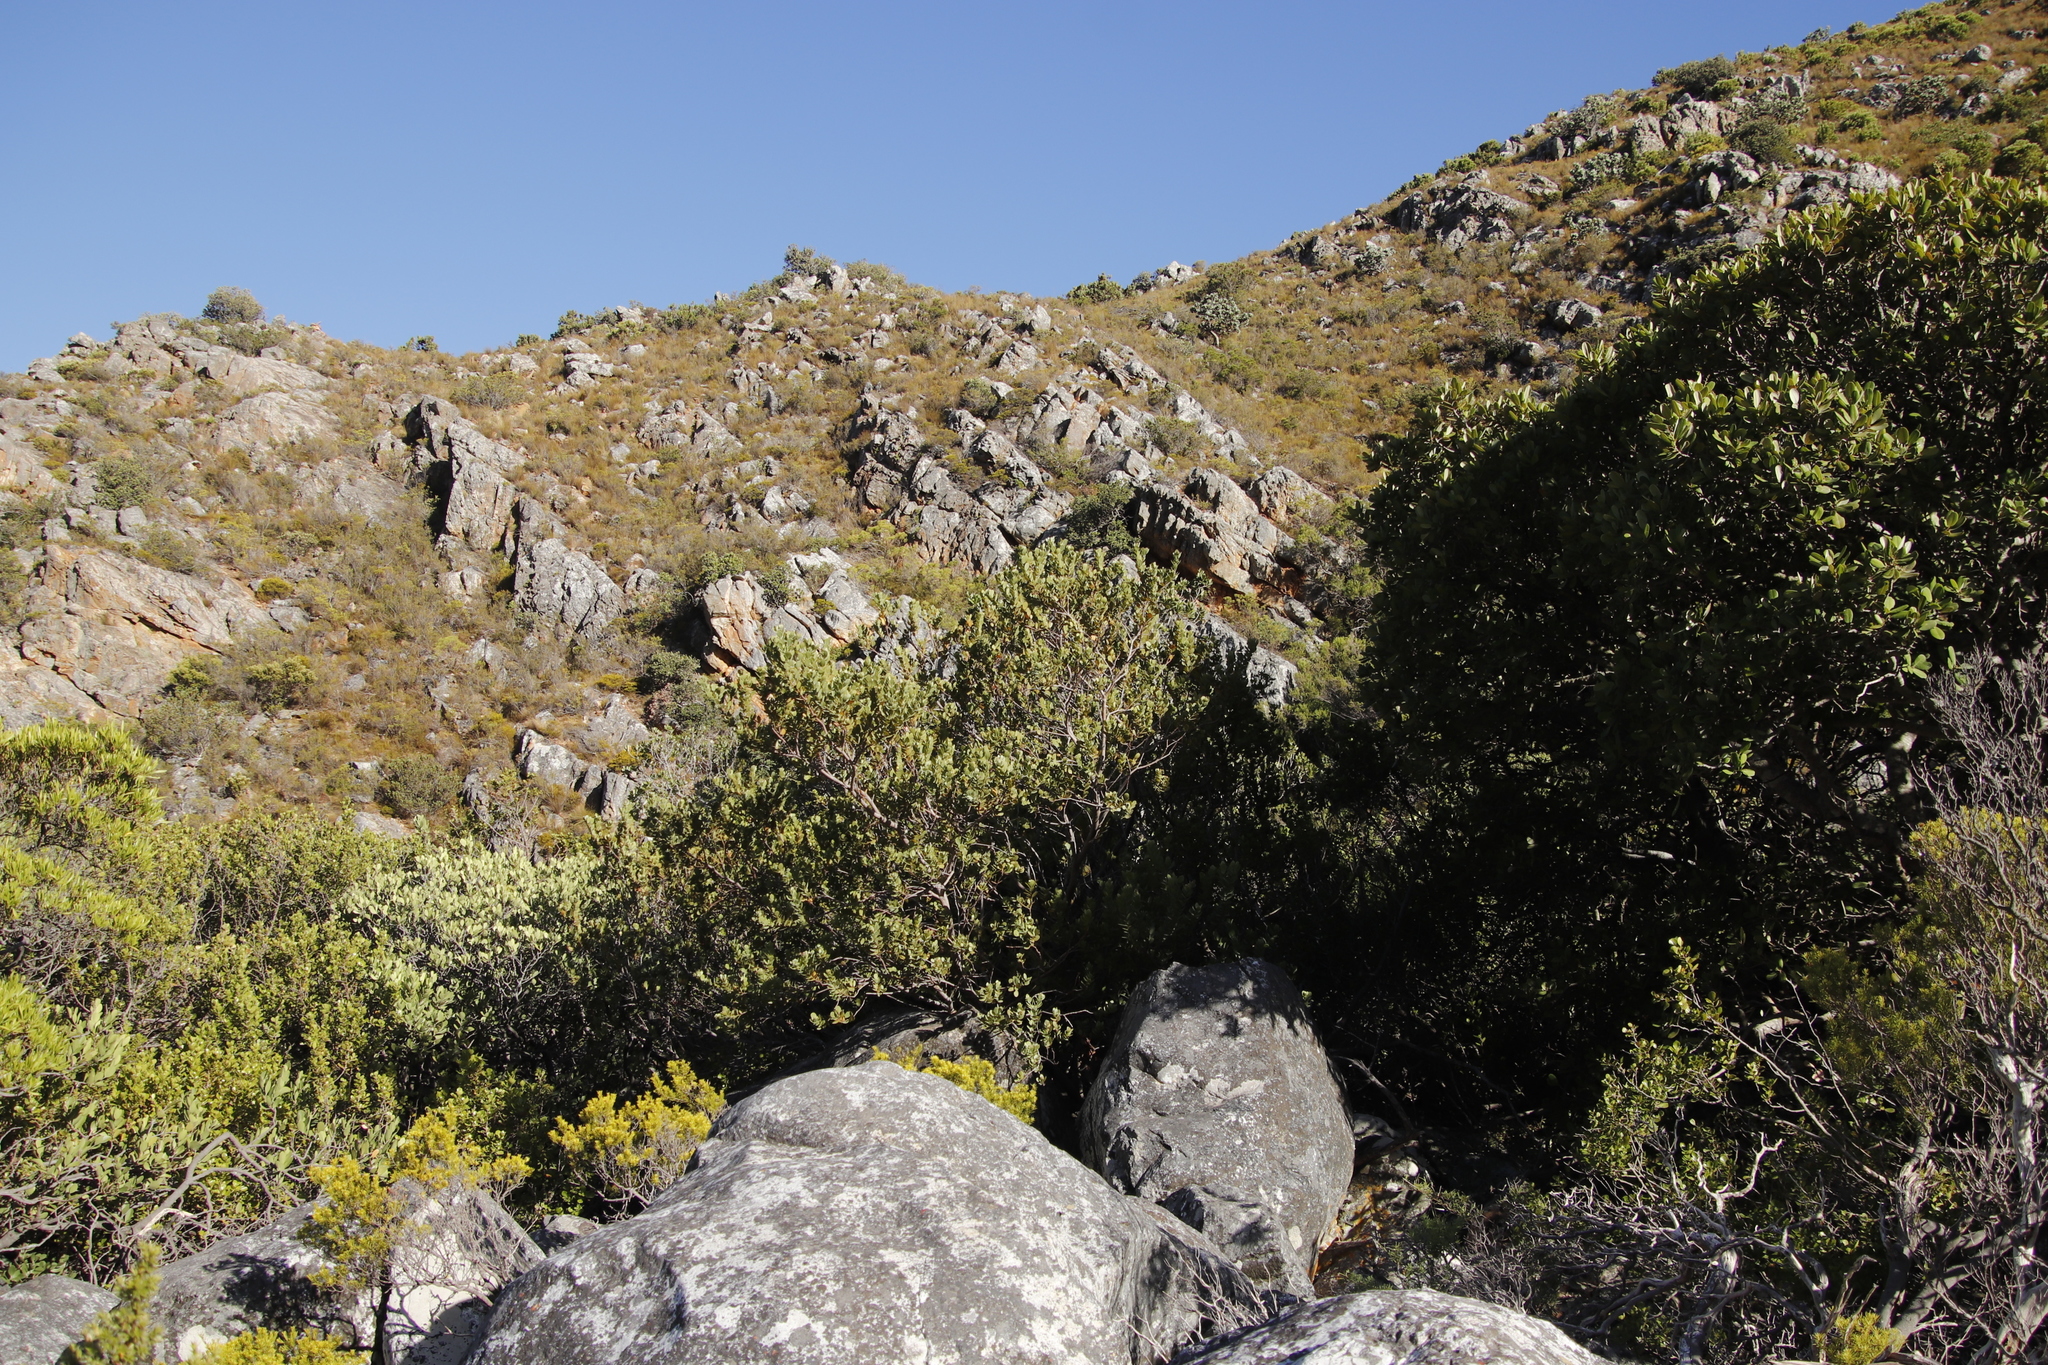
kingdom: Plantae
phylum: Tracheophyta
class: Magnoliopsida
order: Santalales
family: Santalaceae
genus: Osyris
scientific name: Osyris compressa
